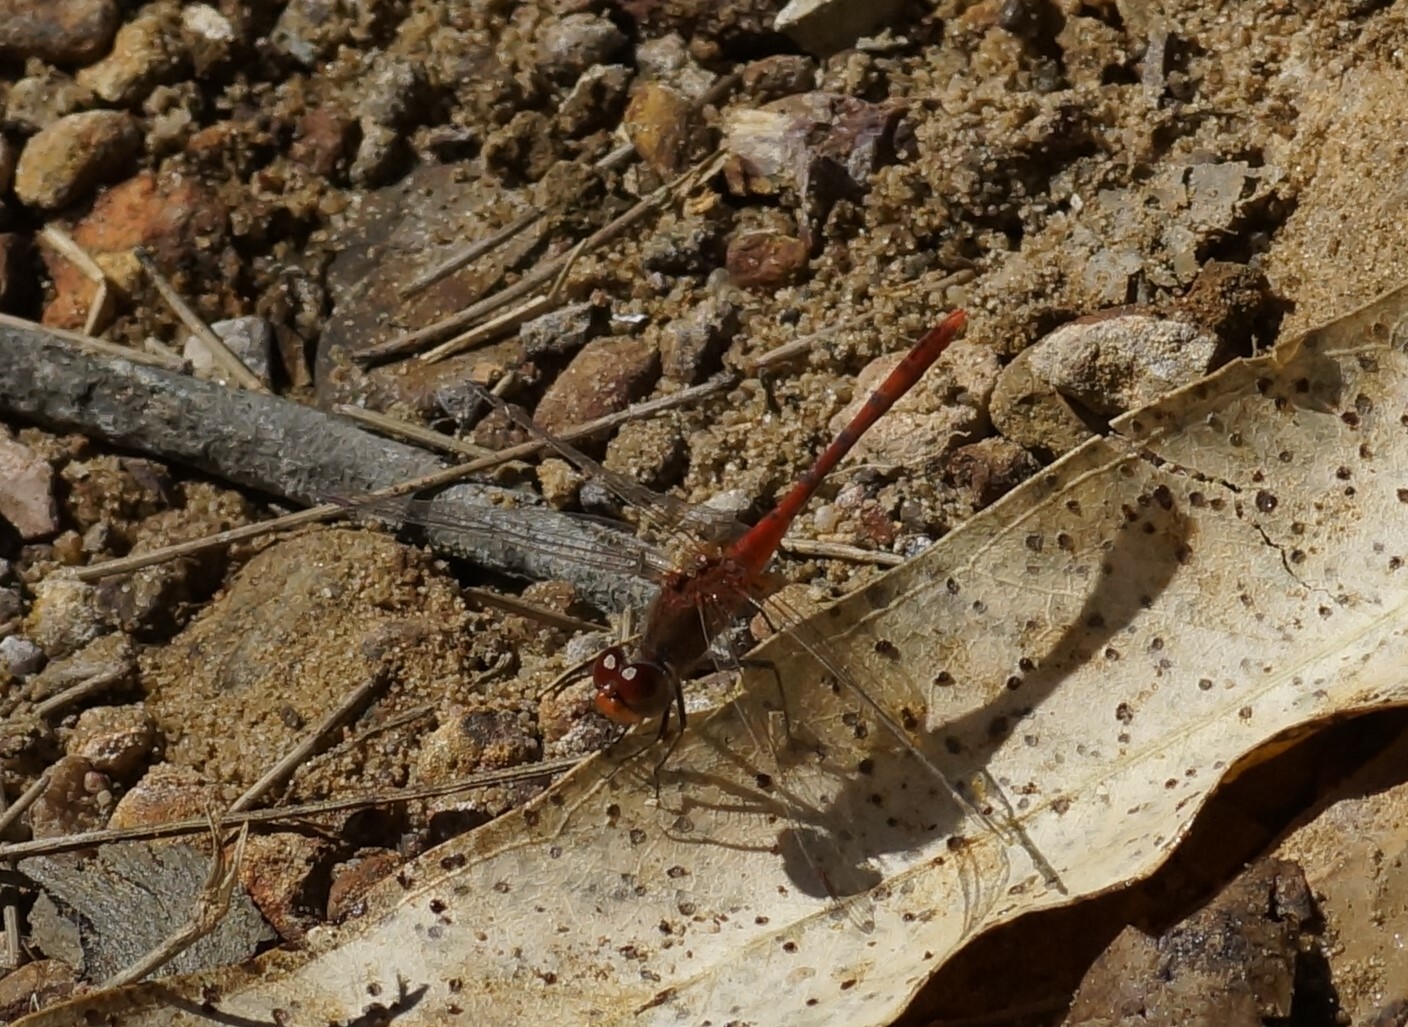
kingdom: Animalia
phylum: Arthropoda
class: Insecta
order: Odonata
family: Libellulidae
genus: Diplacodes
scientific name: Diplacodes bipunctata
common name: Red percher dragonfly
